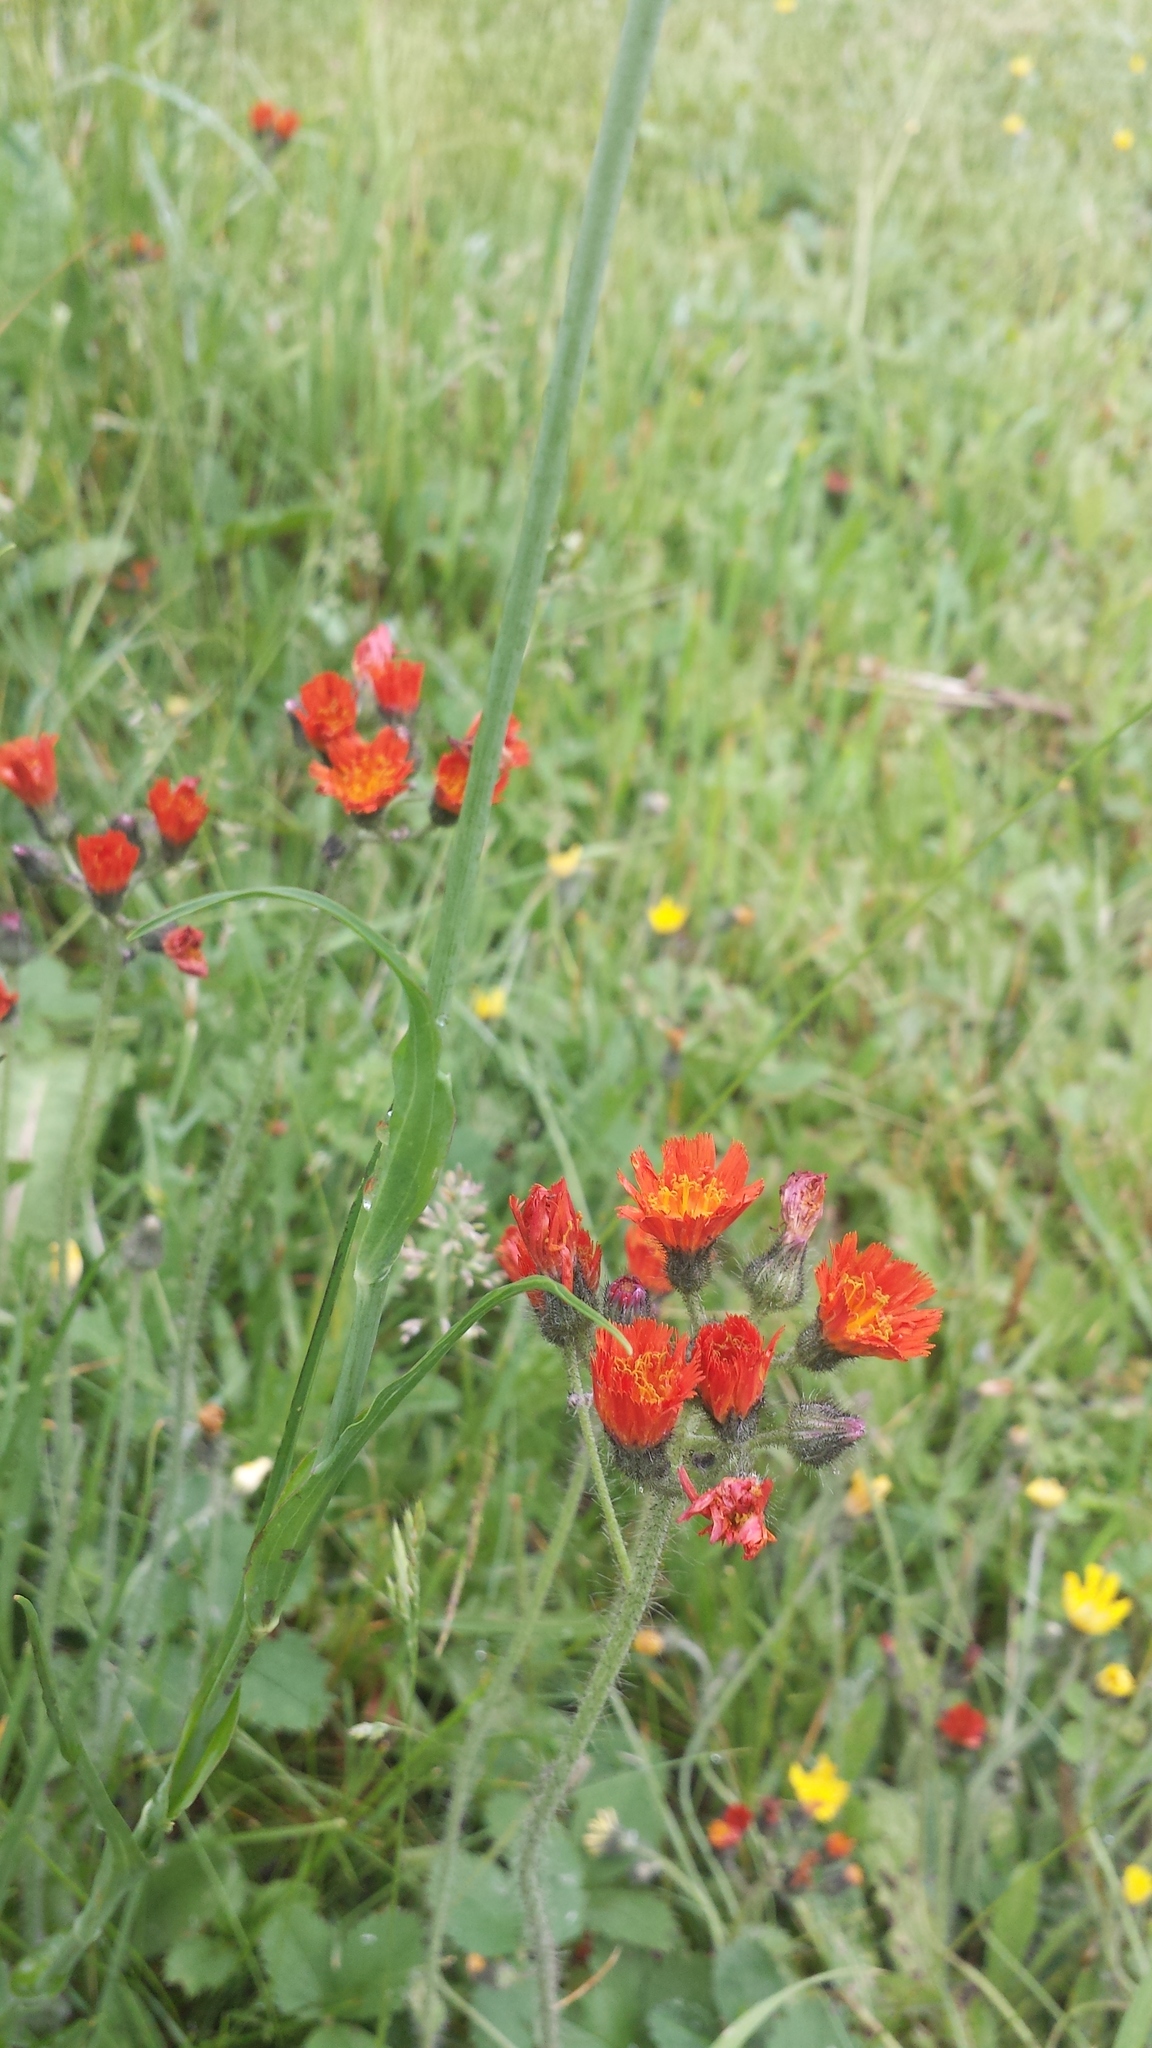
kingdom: Plantae
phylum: Tracheophyta
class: Magnoliopsida
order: Asterales
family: Asteraceae
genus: Pilosella
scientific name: Pilosella aurantiaca
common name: Fox-and-cubs
